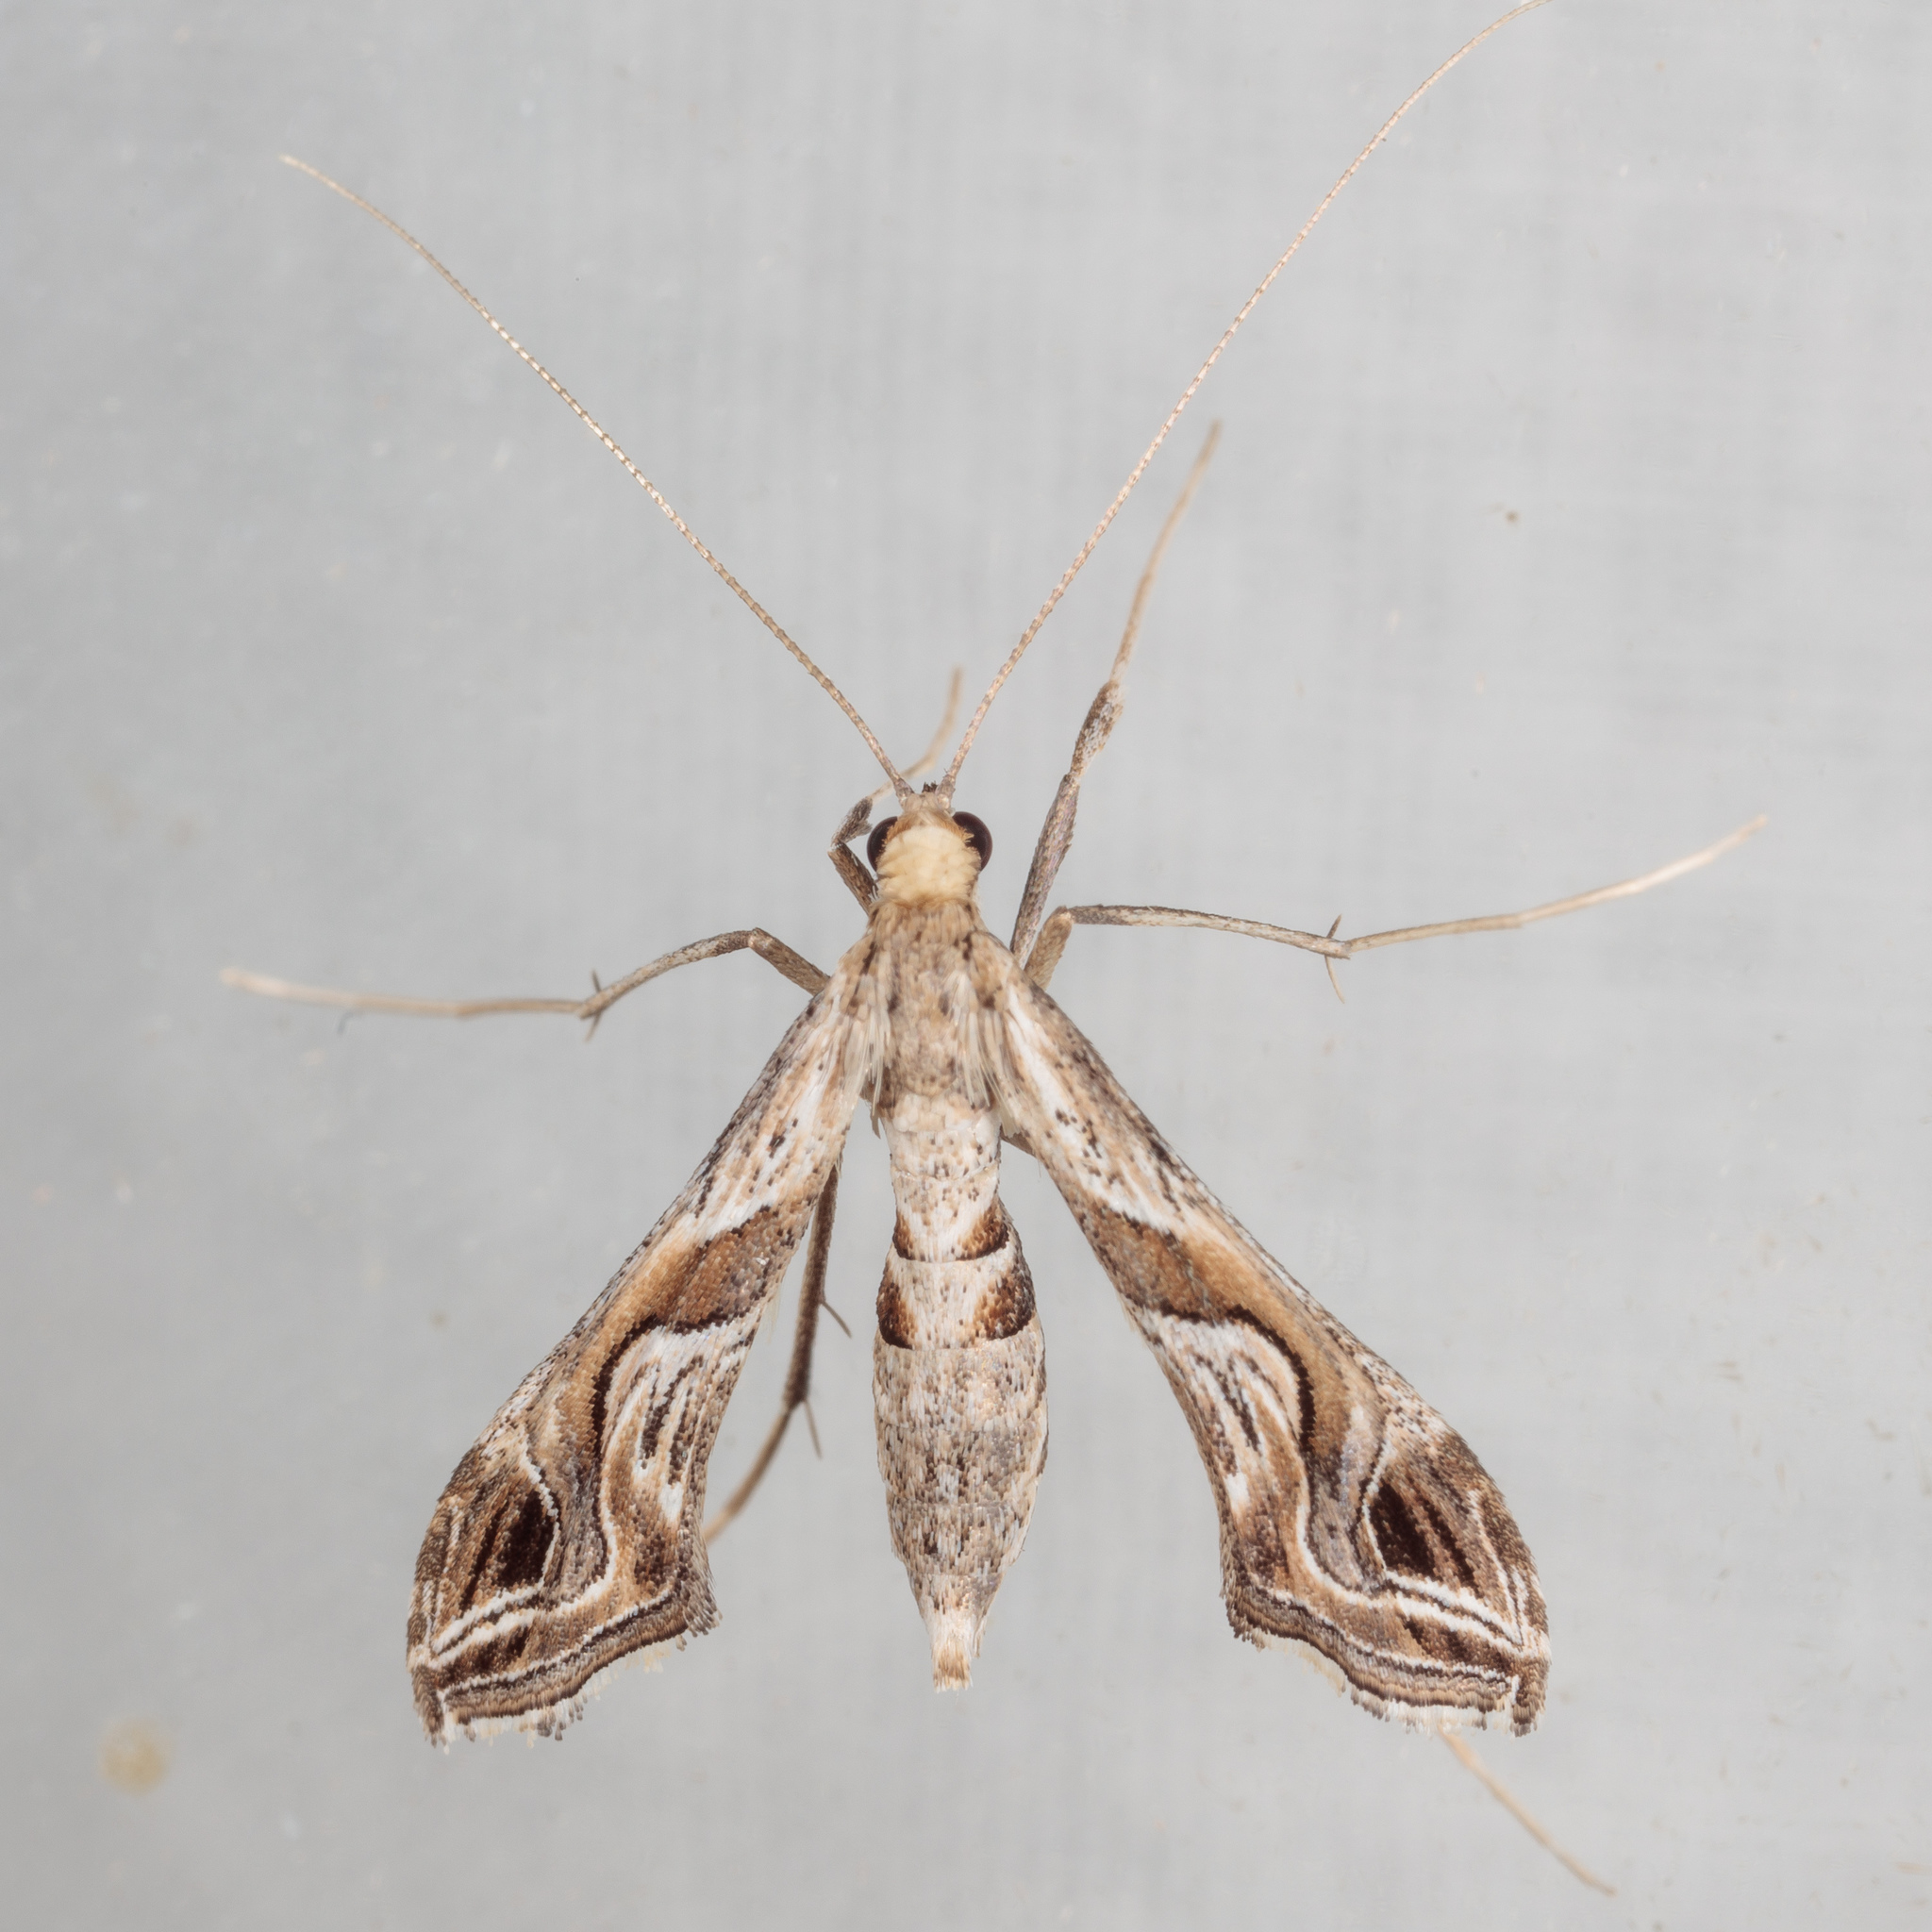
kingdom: Animalia
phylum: Arthropoda
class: Insecta
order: Lepidoptera
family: Crambidae
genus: Lineodes
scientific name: Lineodes integra
